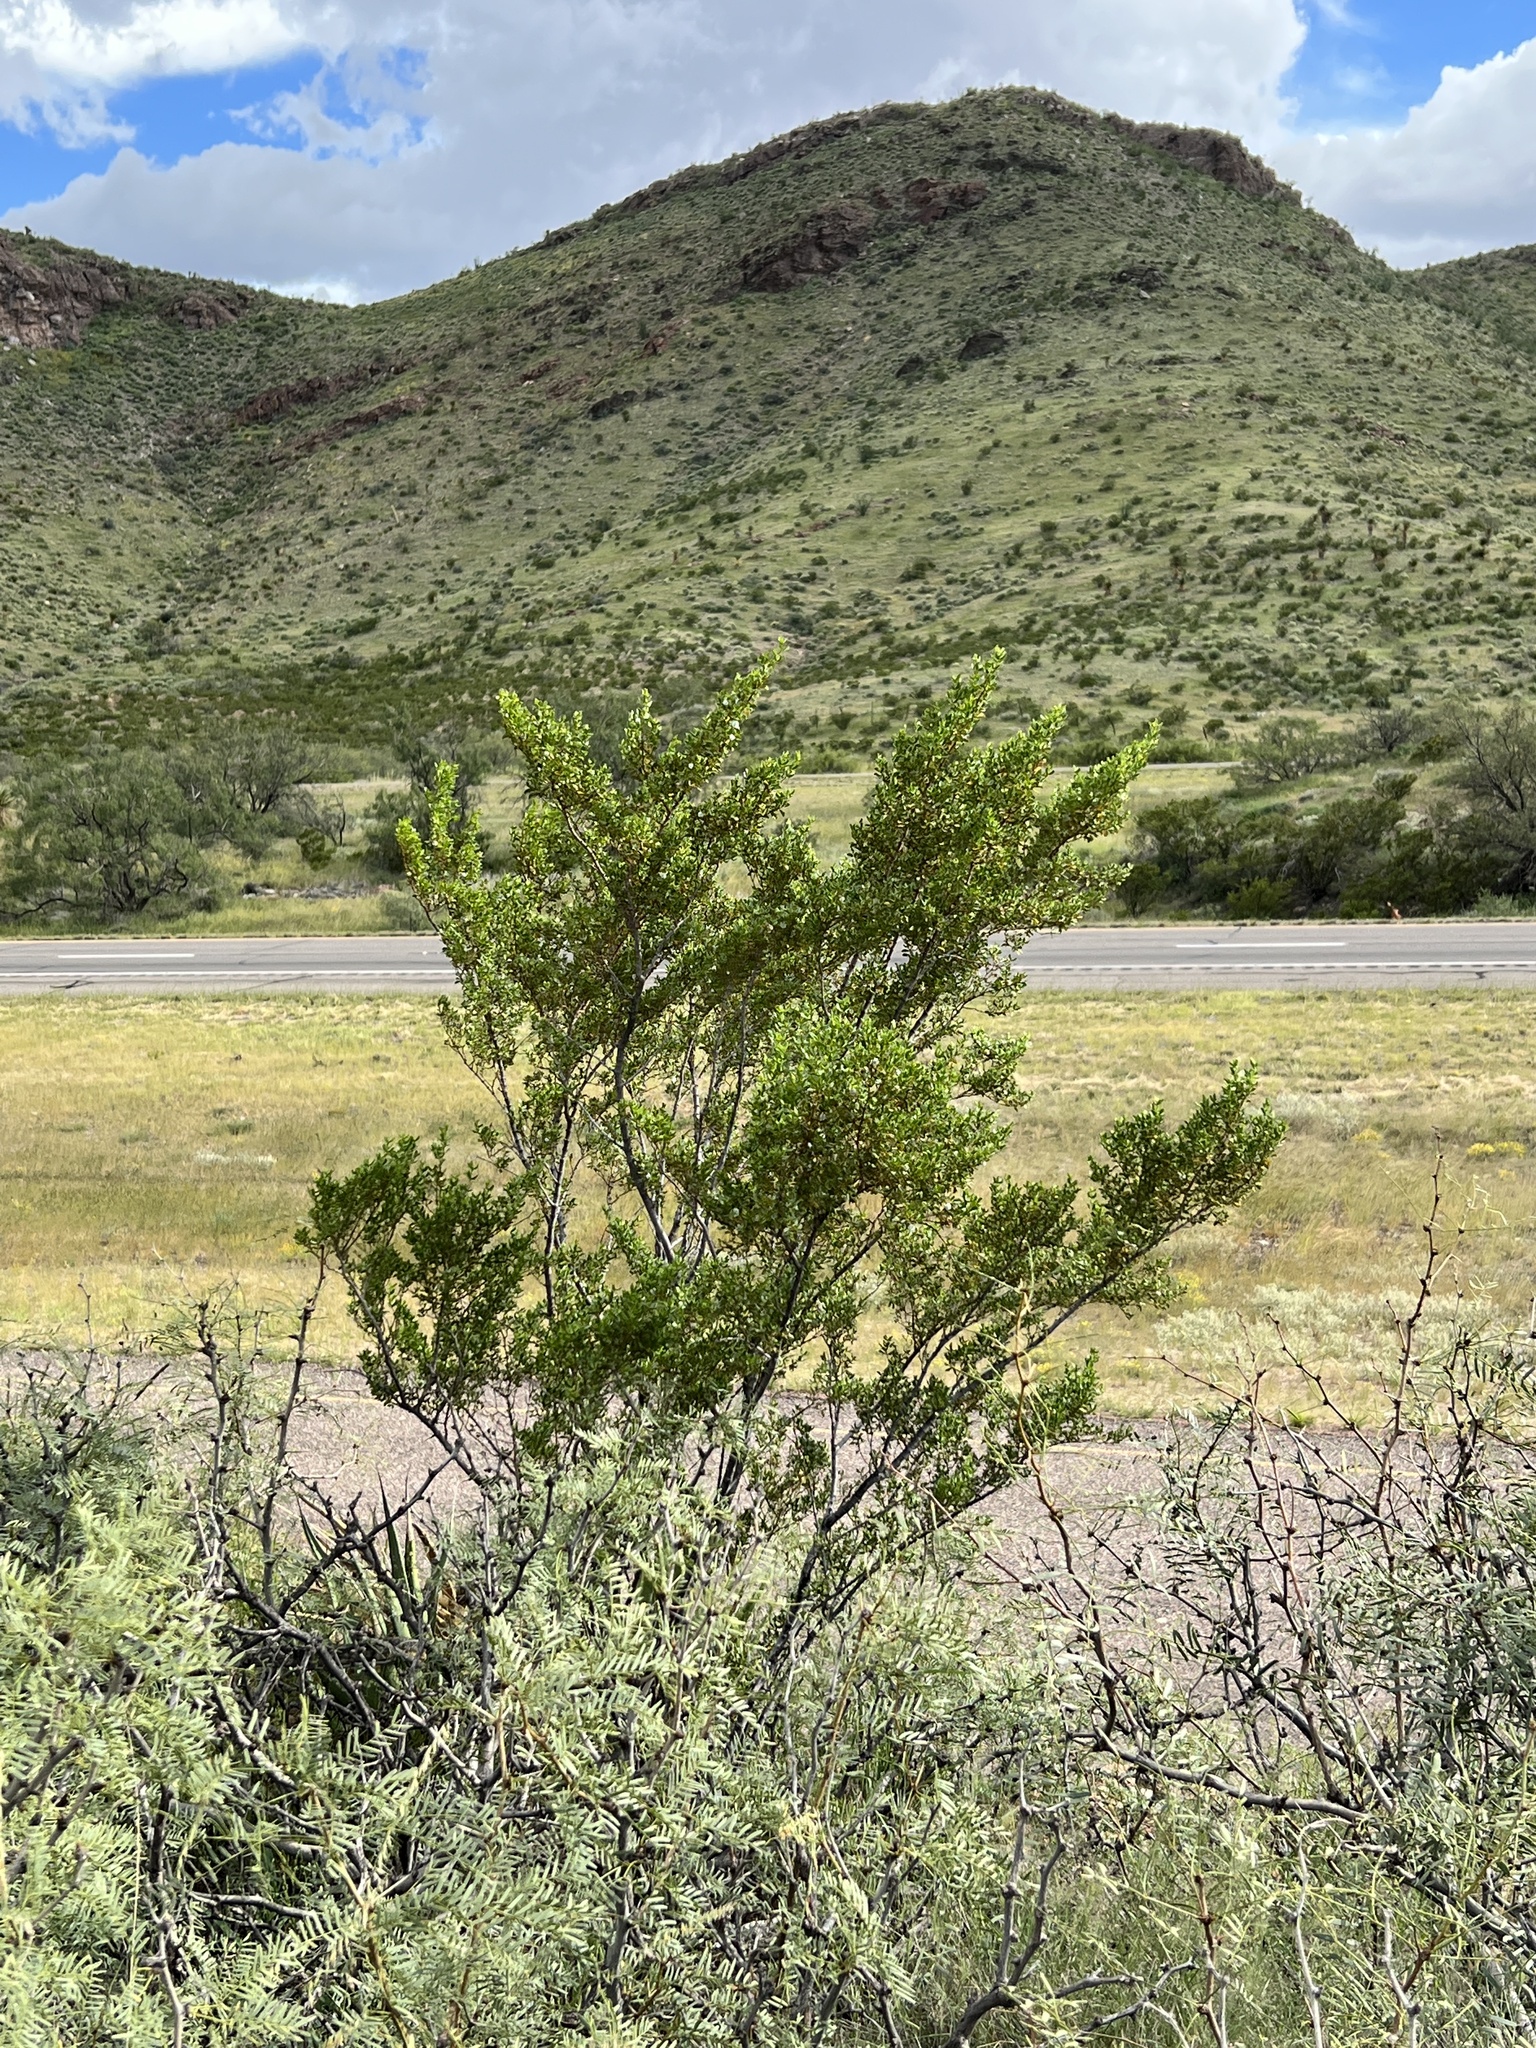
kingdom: Plantae
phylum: Tracheophyta
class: Magnoliopsida
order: Zygophyllales
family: Zygophyllaceae
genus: Larrea
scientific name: Larrea tridentata
